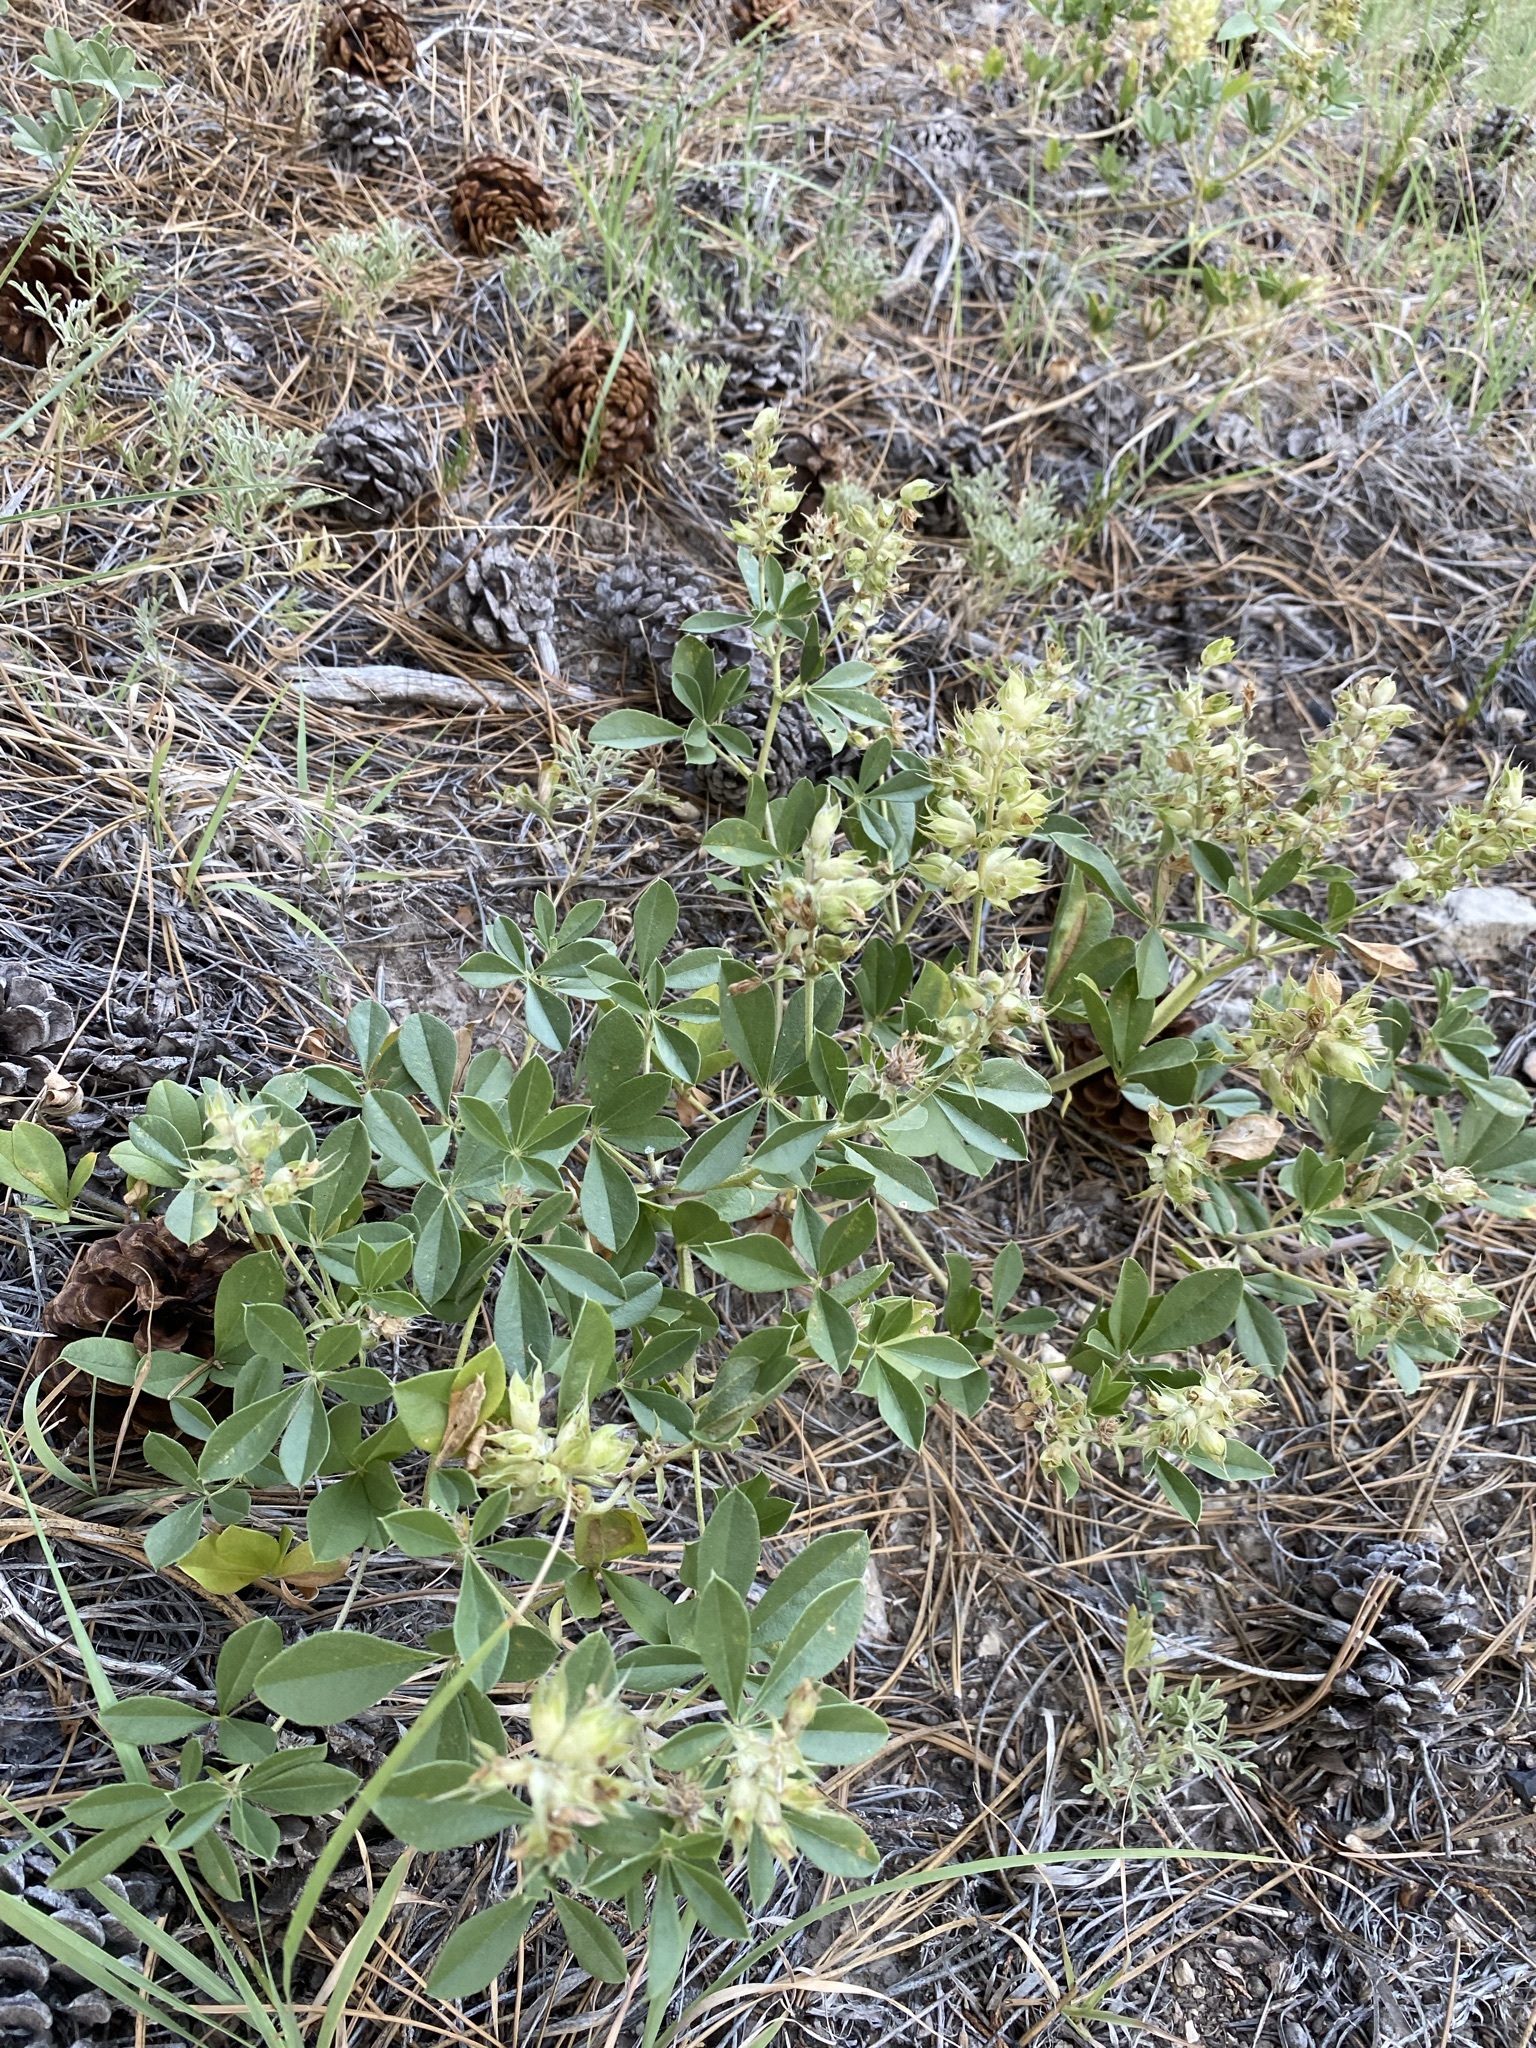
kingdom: Plantae
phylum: Tracheophyta
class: Magnoliopsida
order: Fabales
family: Fabaceae
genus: Pediomelum
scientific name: Pediomelum cuspidatum
